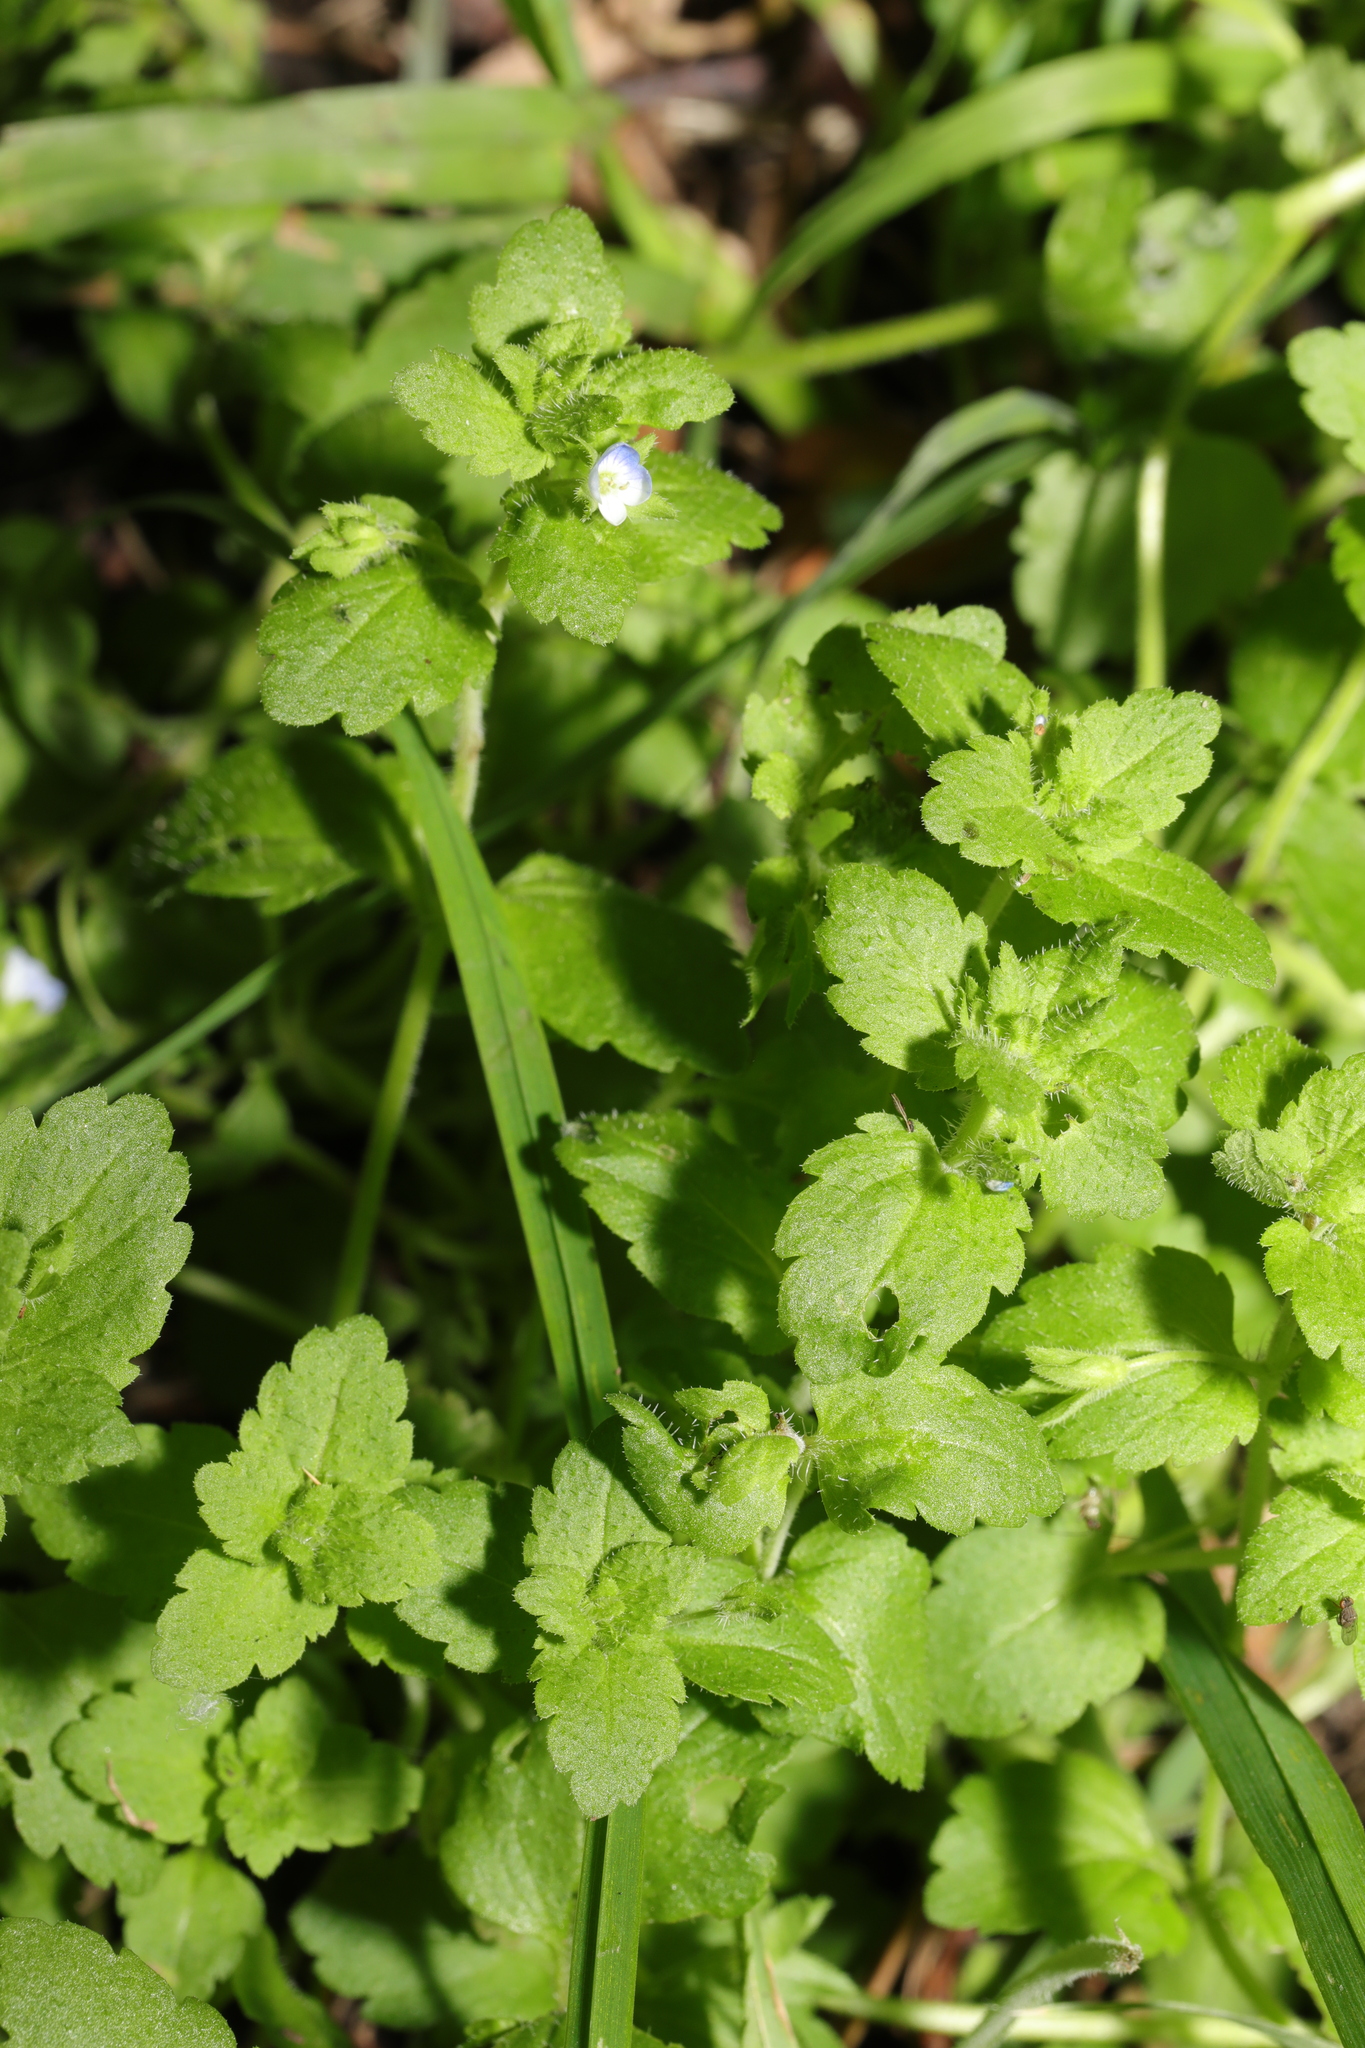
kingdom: Plantae
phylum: Tracheophyta
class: Magnoliopsida
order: Lamiales
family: Plantaginaceae
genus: Veronica
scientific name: Veronica agrestis
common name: Green field-speedwell
